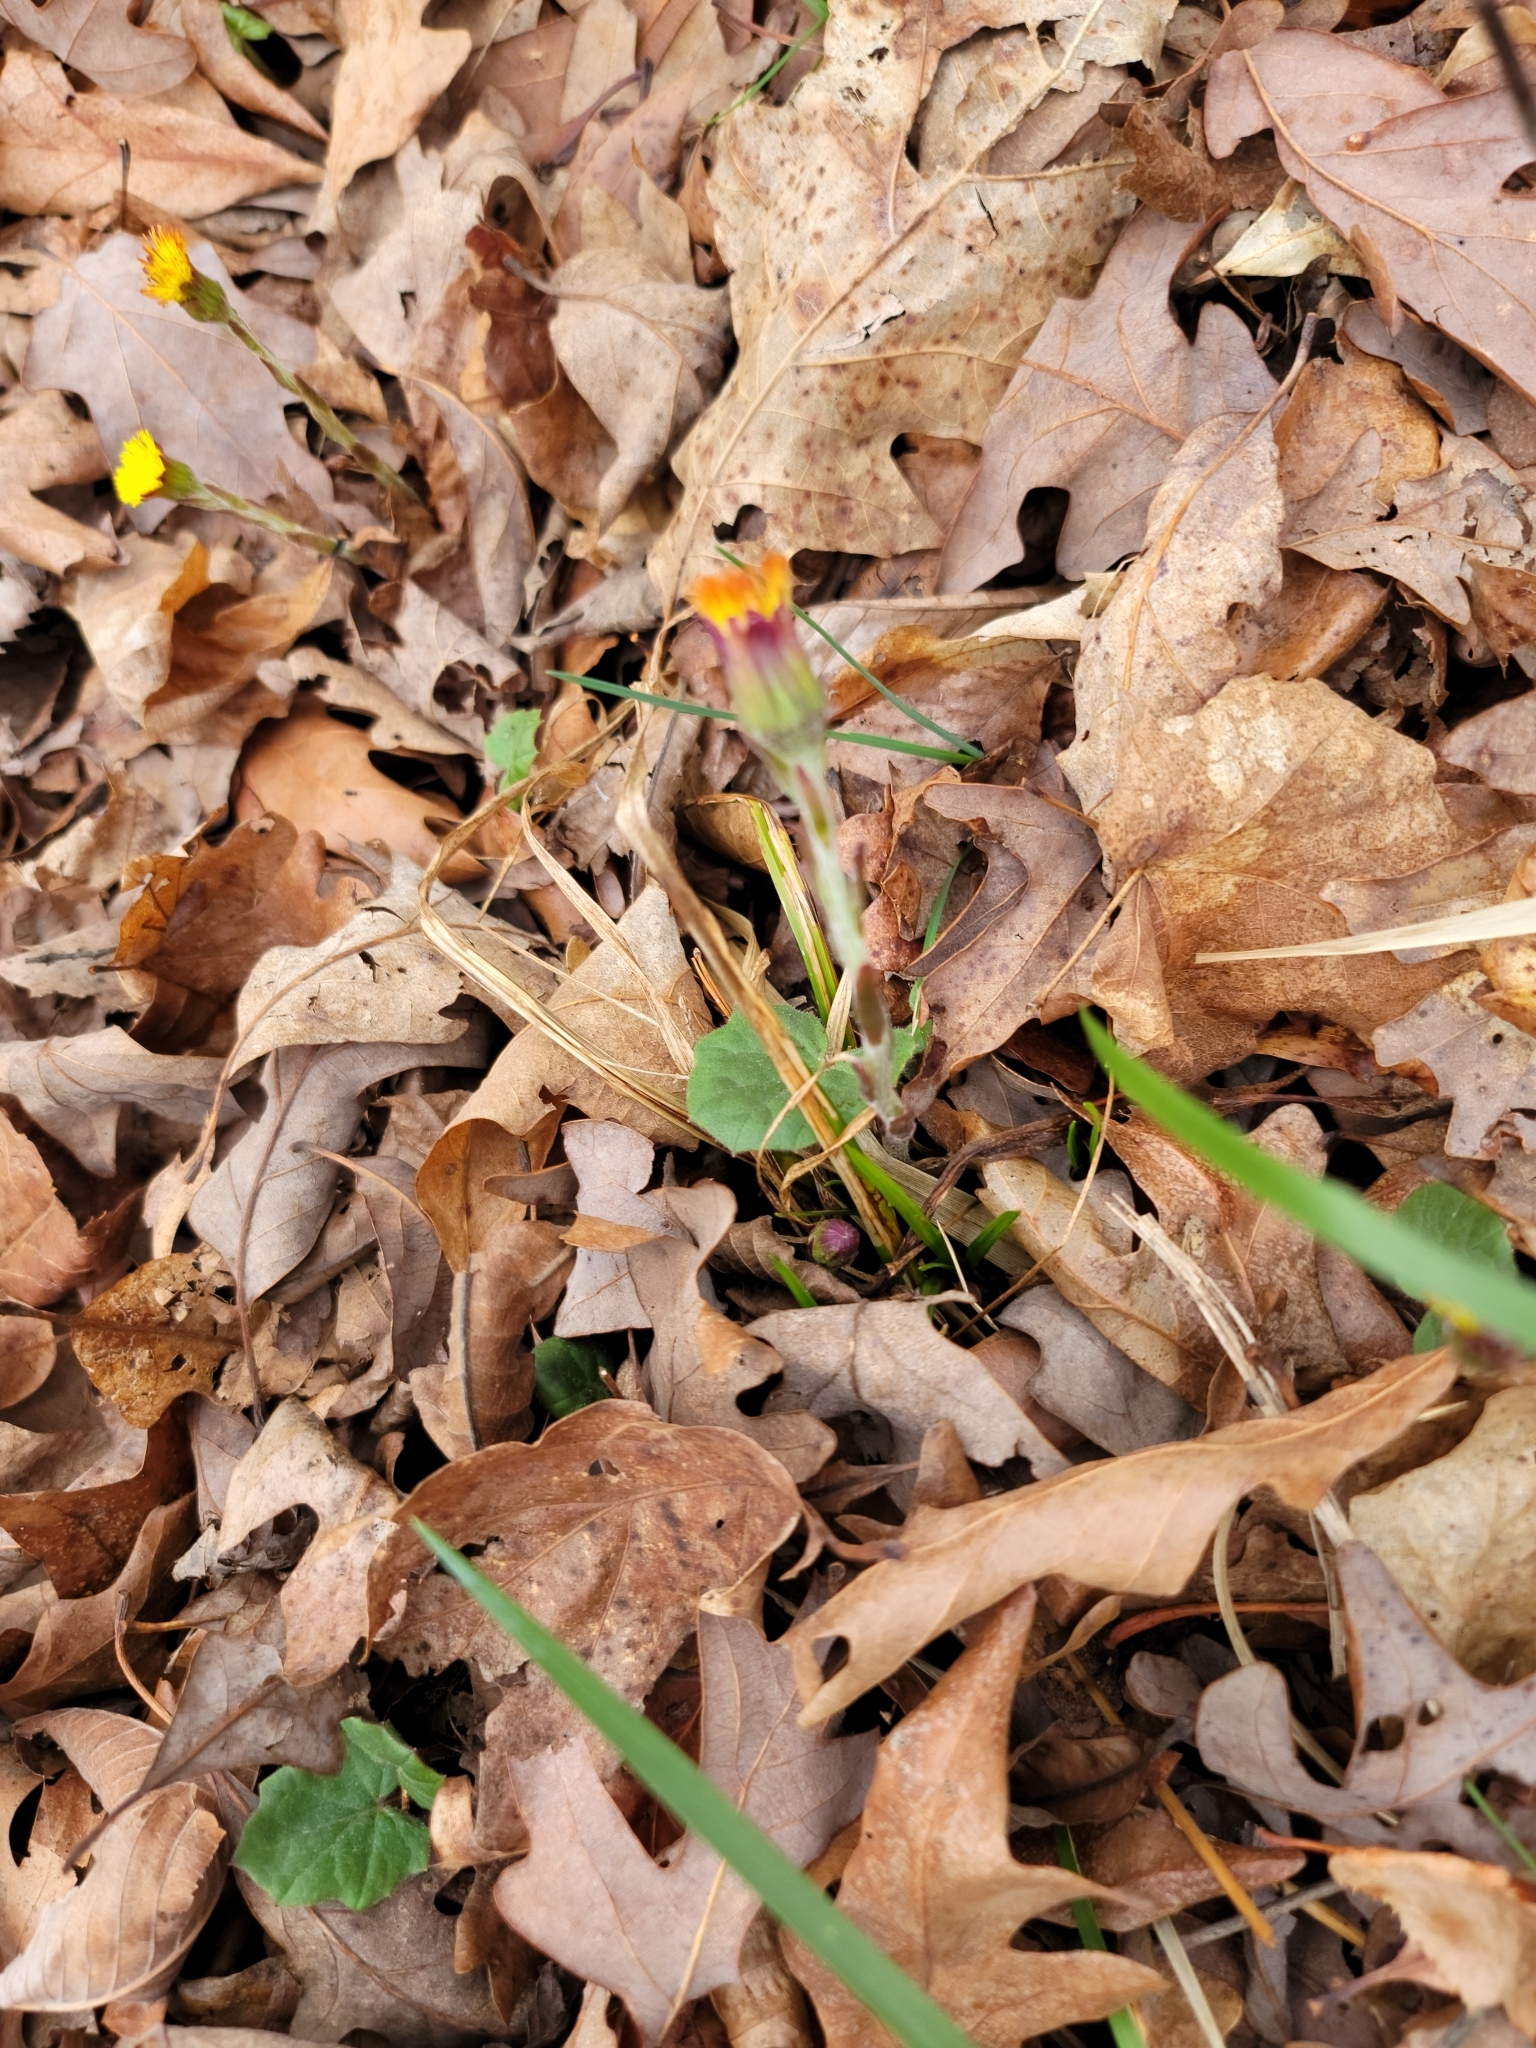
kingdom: Plantae
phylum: Tracheophyta
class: Magnoliopsida
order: Asterales
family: Asteraceae
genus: Tussilago
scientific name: Tussilago farfara
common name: Coltsfoot
